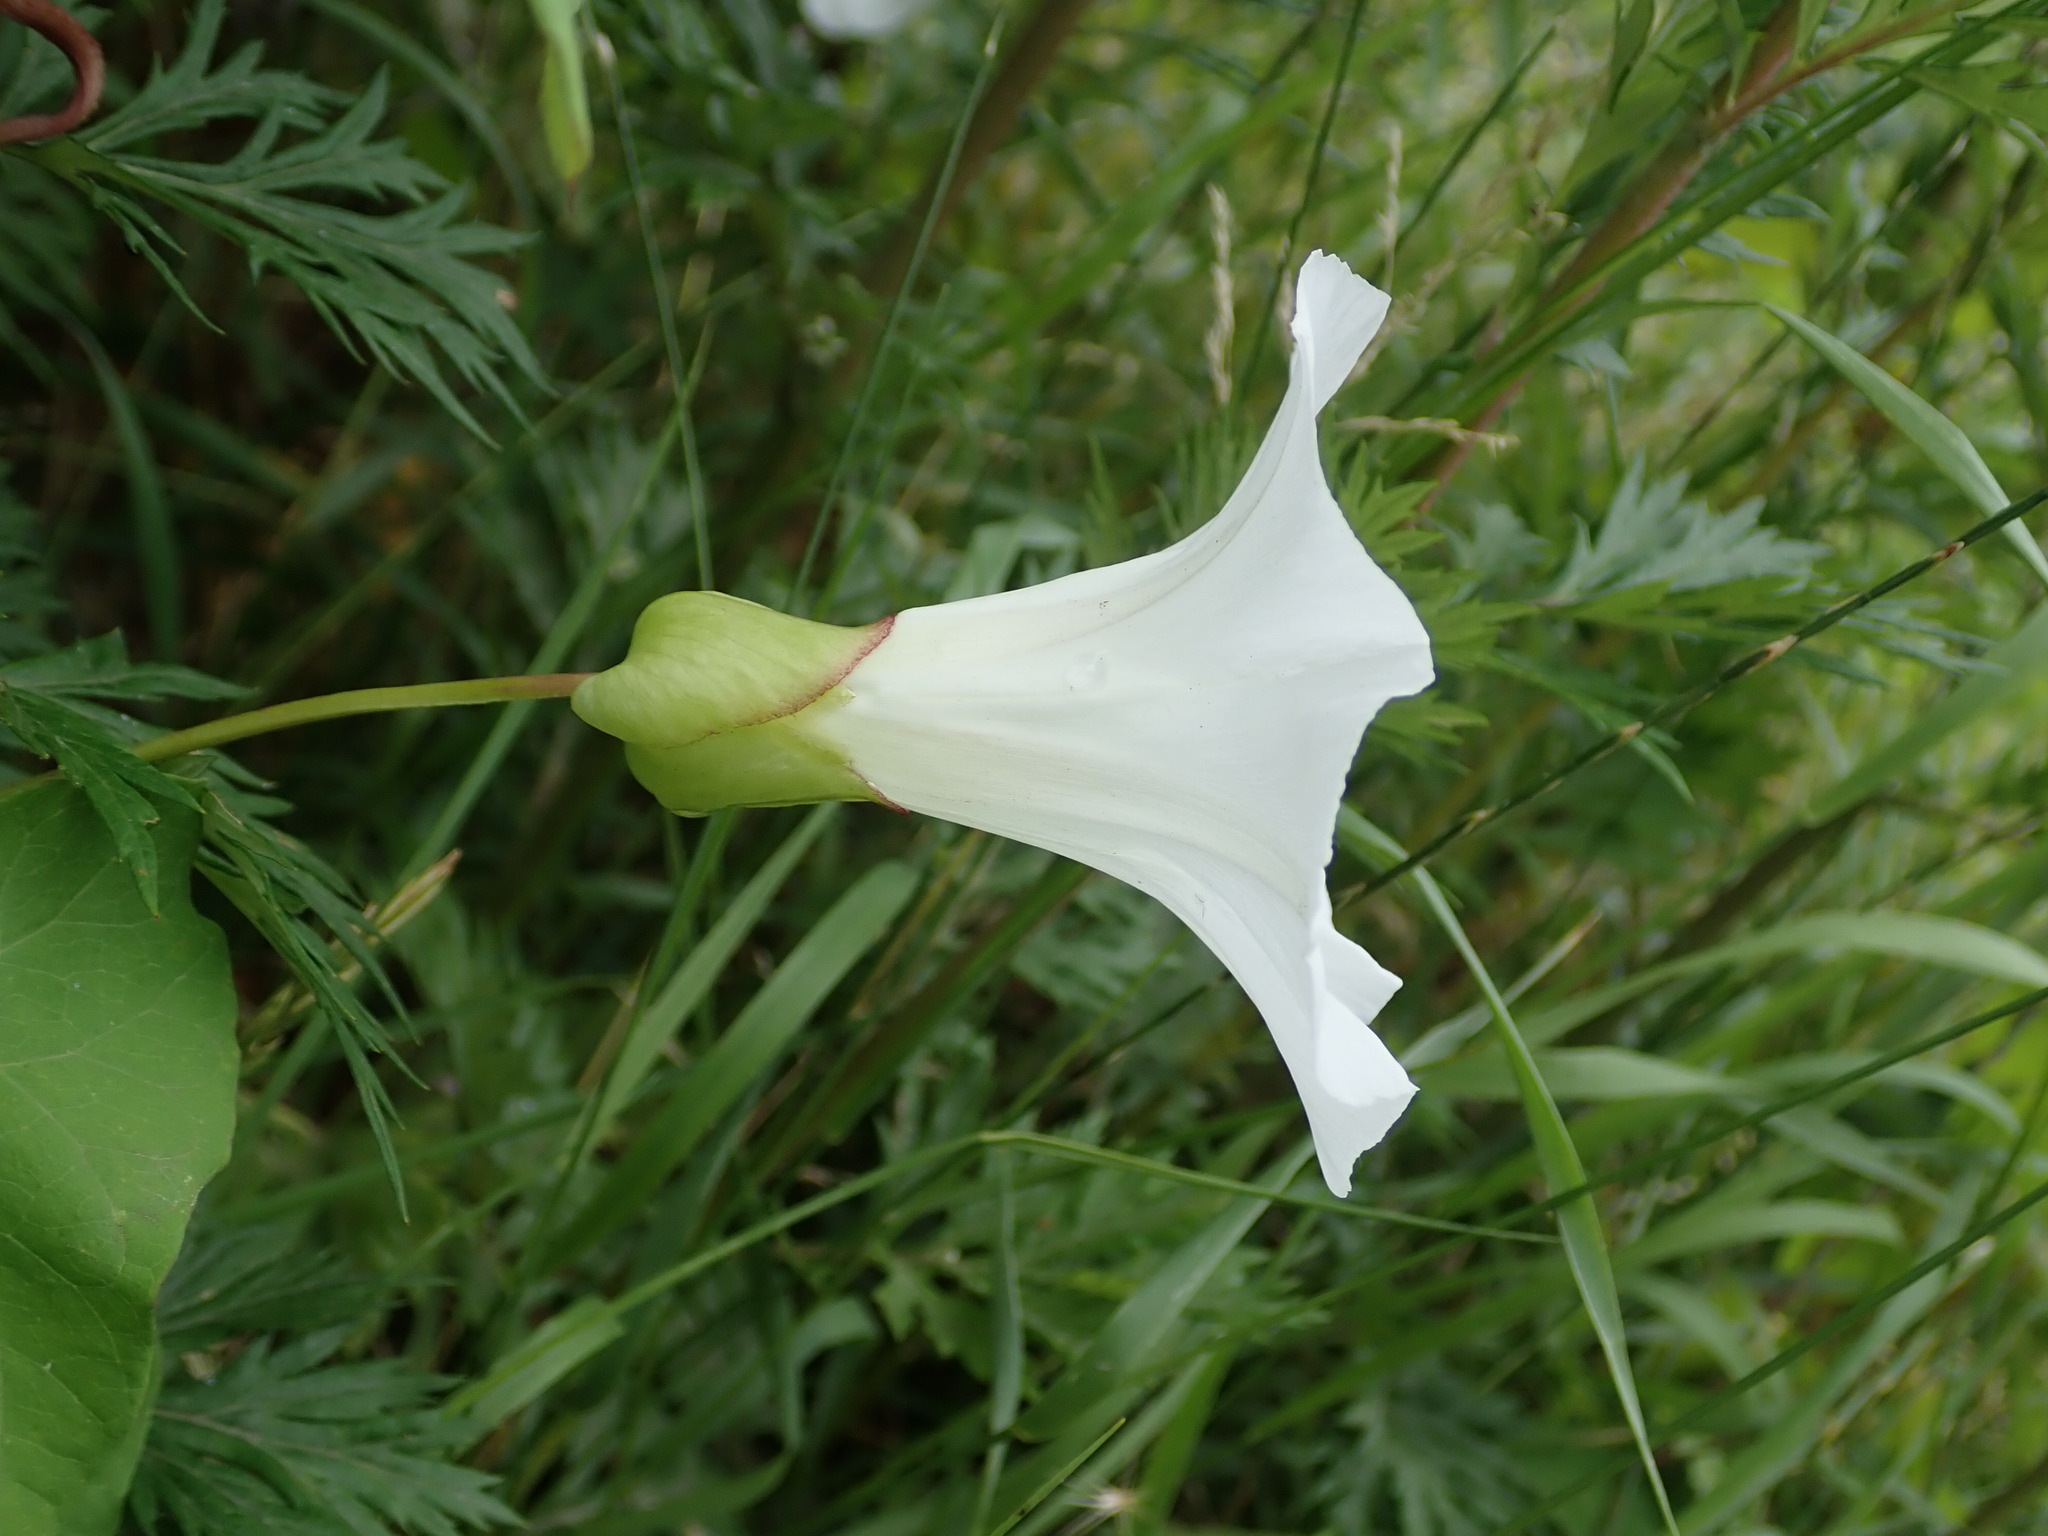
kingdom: Plantae
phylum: Tracheophyta
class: Magnoliopsida
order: Solanales
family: Convolvulaceae
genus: Calystegia
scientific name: Calystegia silvatica
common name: Large bindweed
